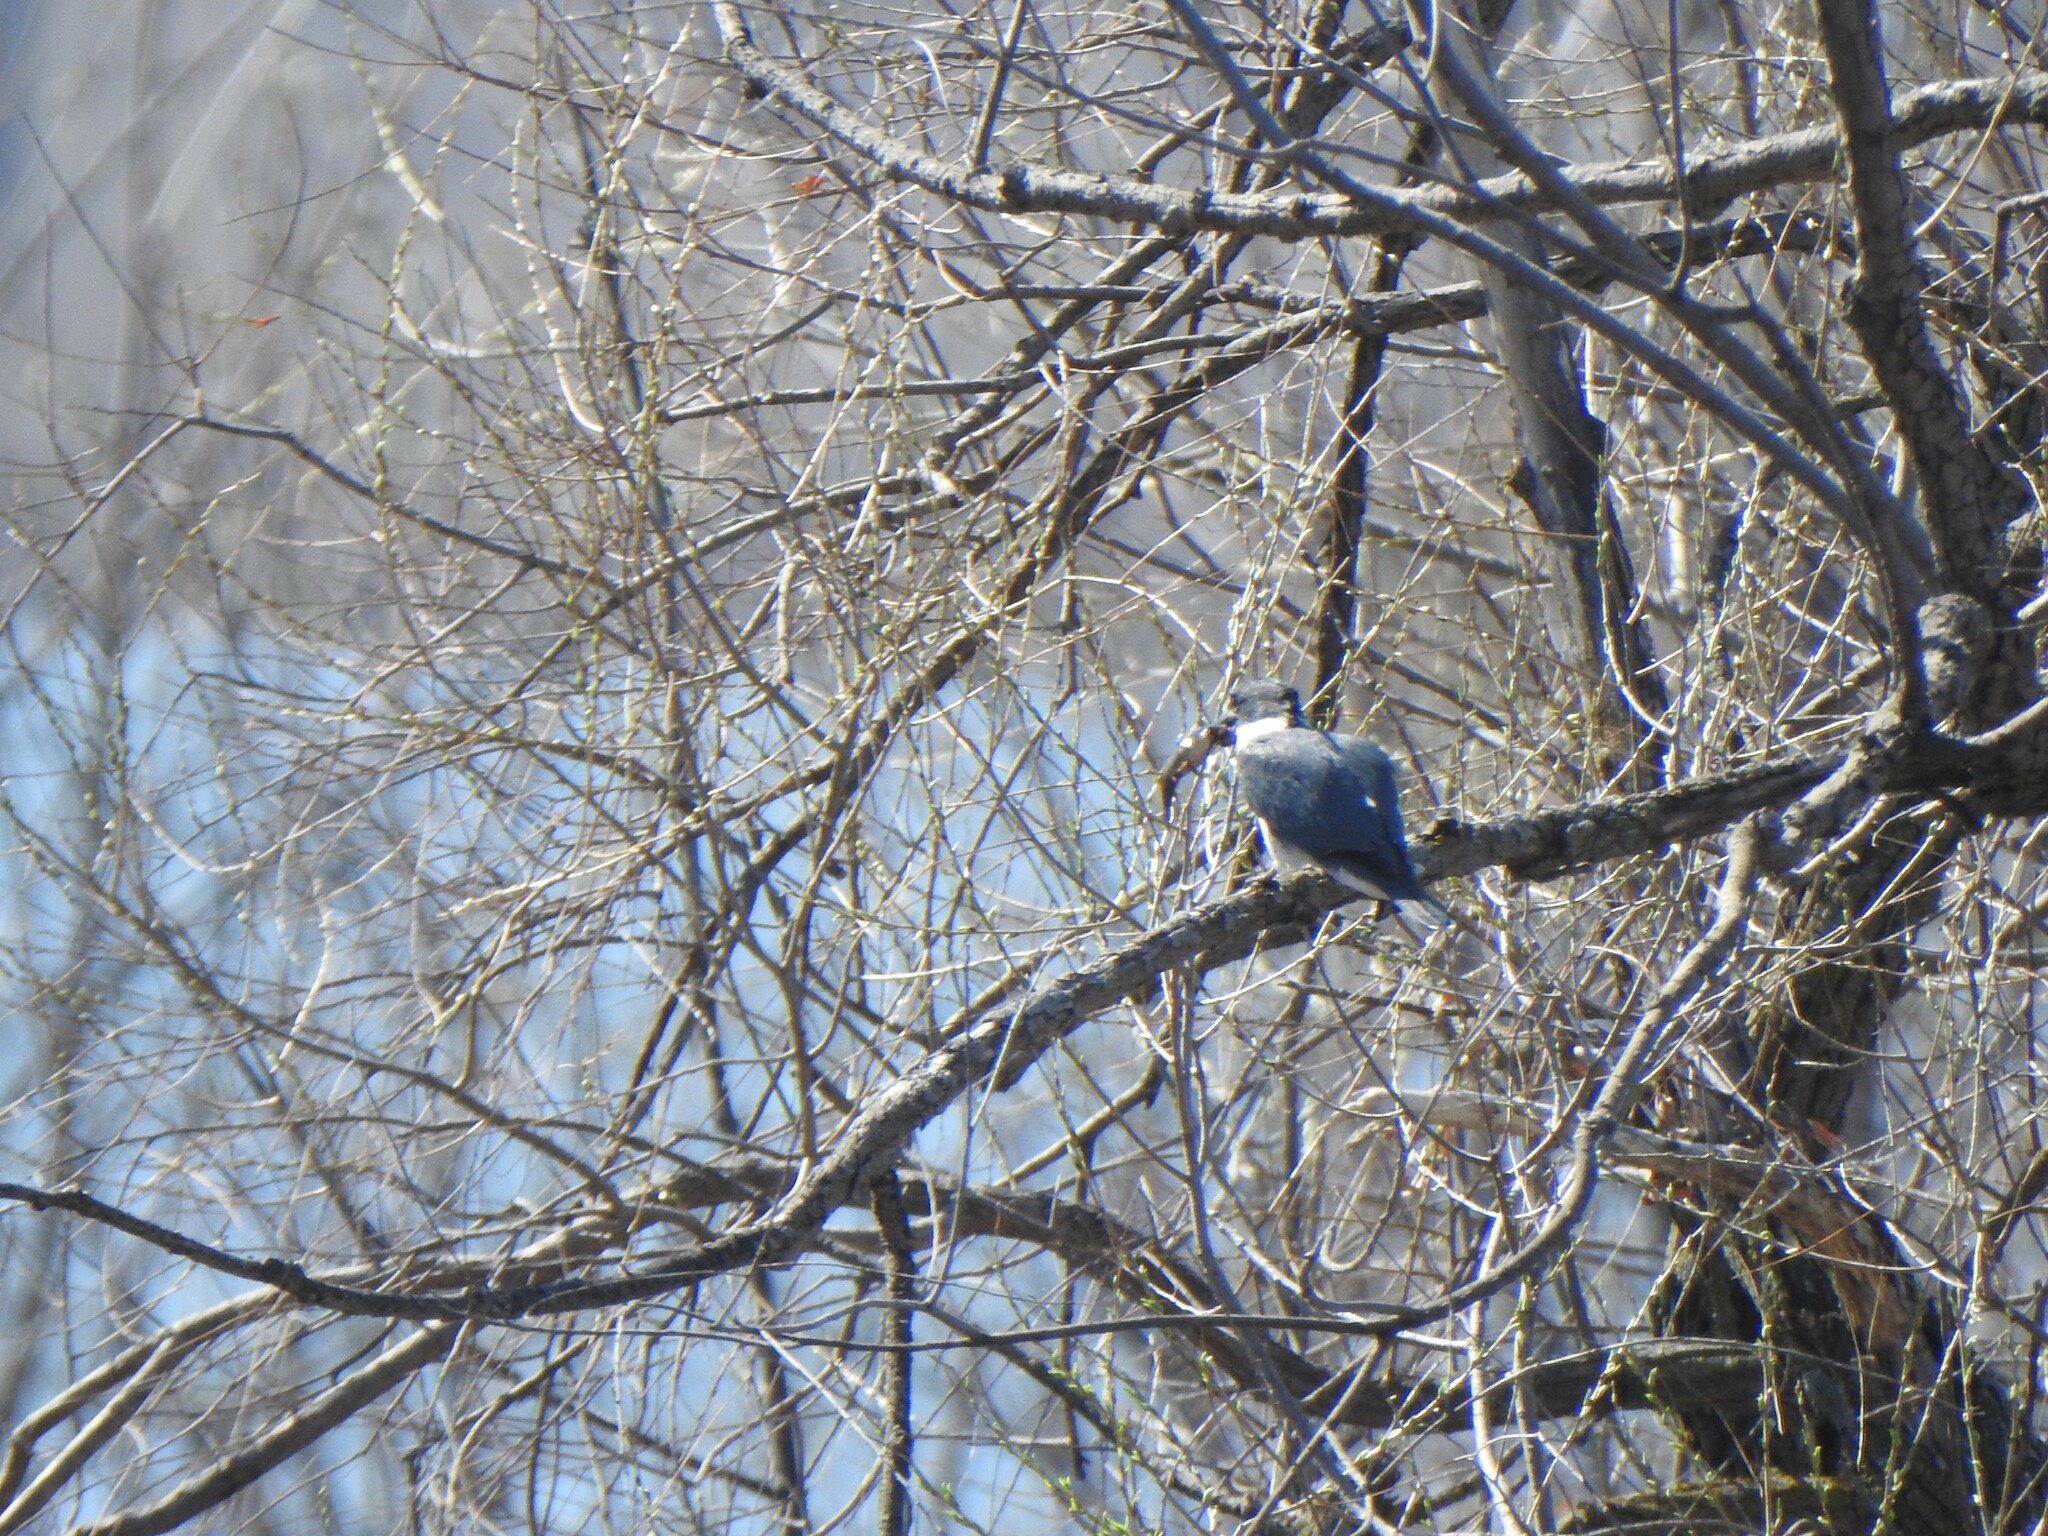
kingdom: Animalia
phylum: Chordata
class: Aves
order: Coraciiformes
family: Alcedinidae
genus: Megaceryle
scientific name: Megaceryle alcyon
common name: Belted kingfisher
